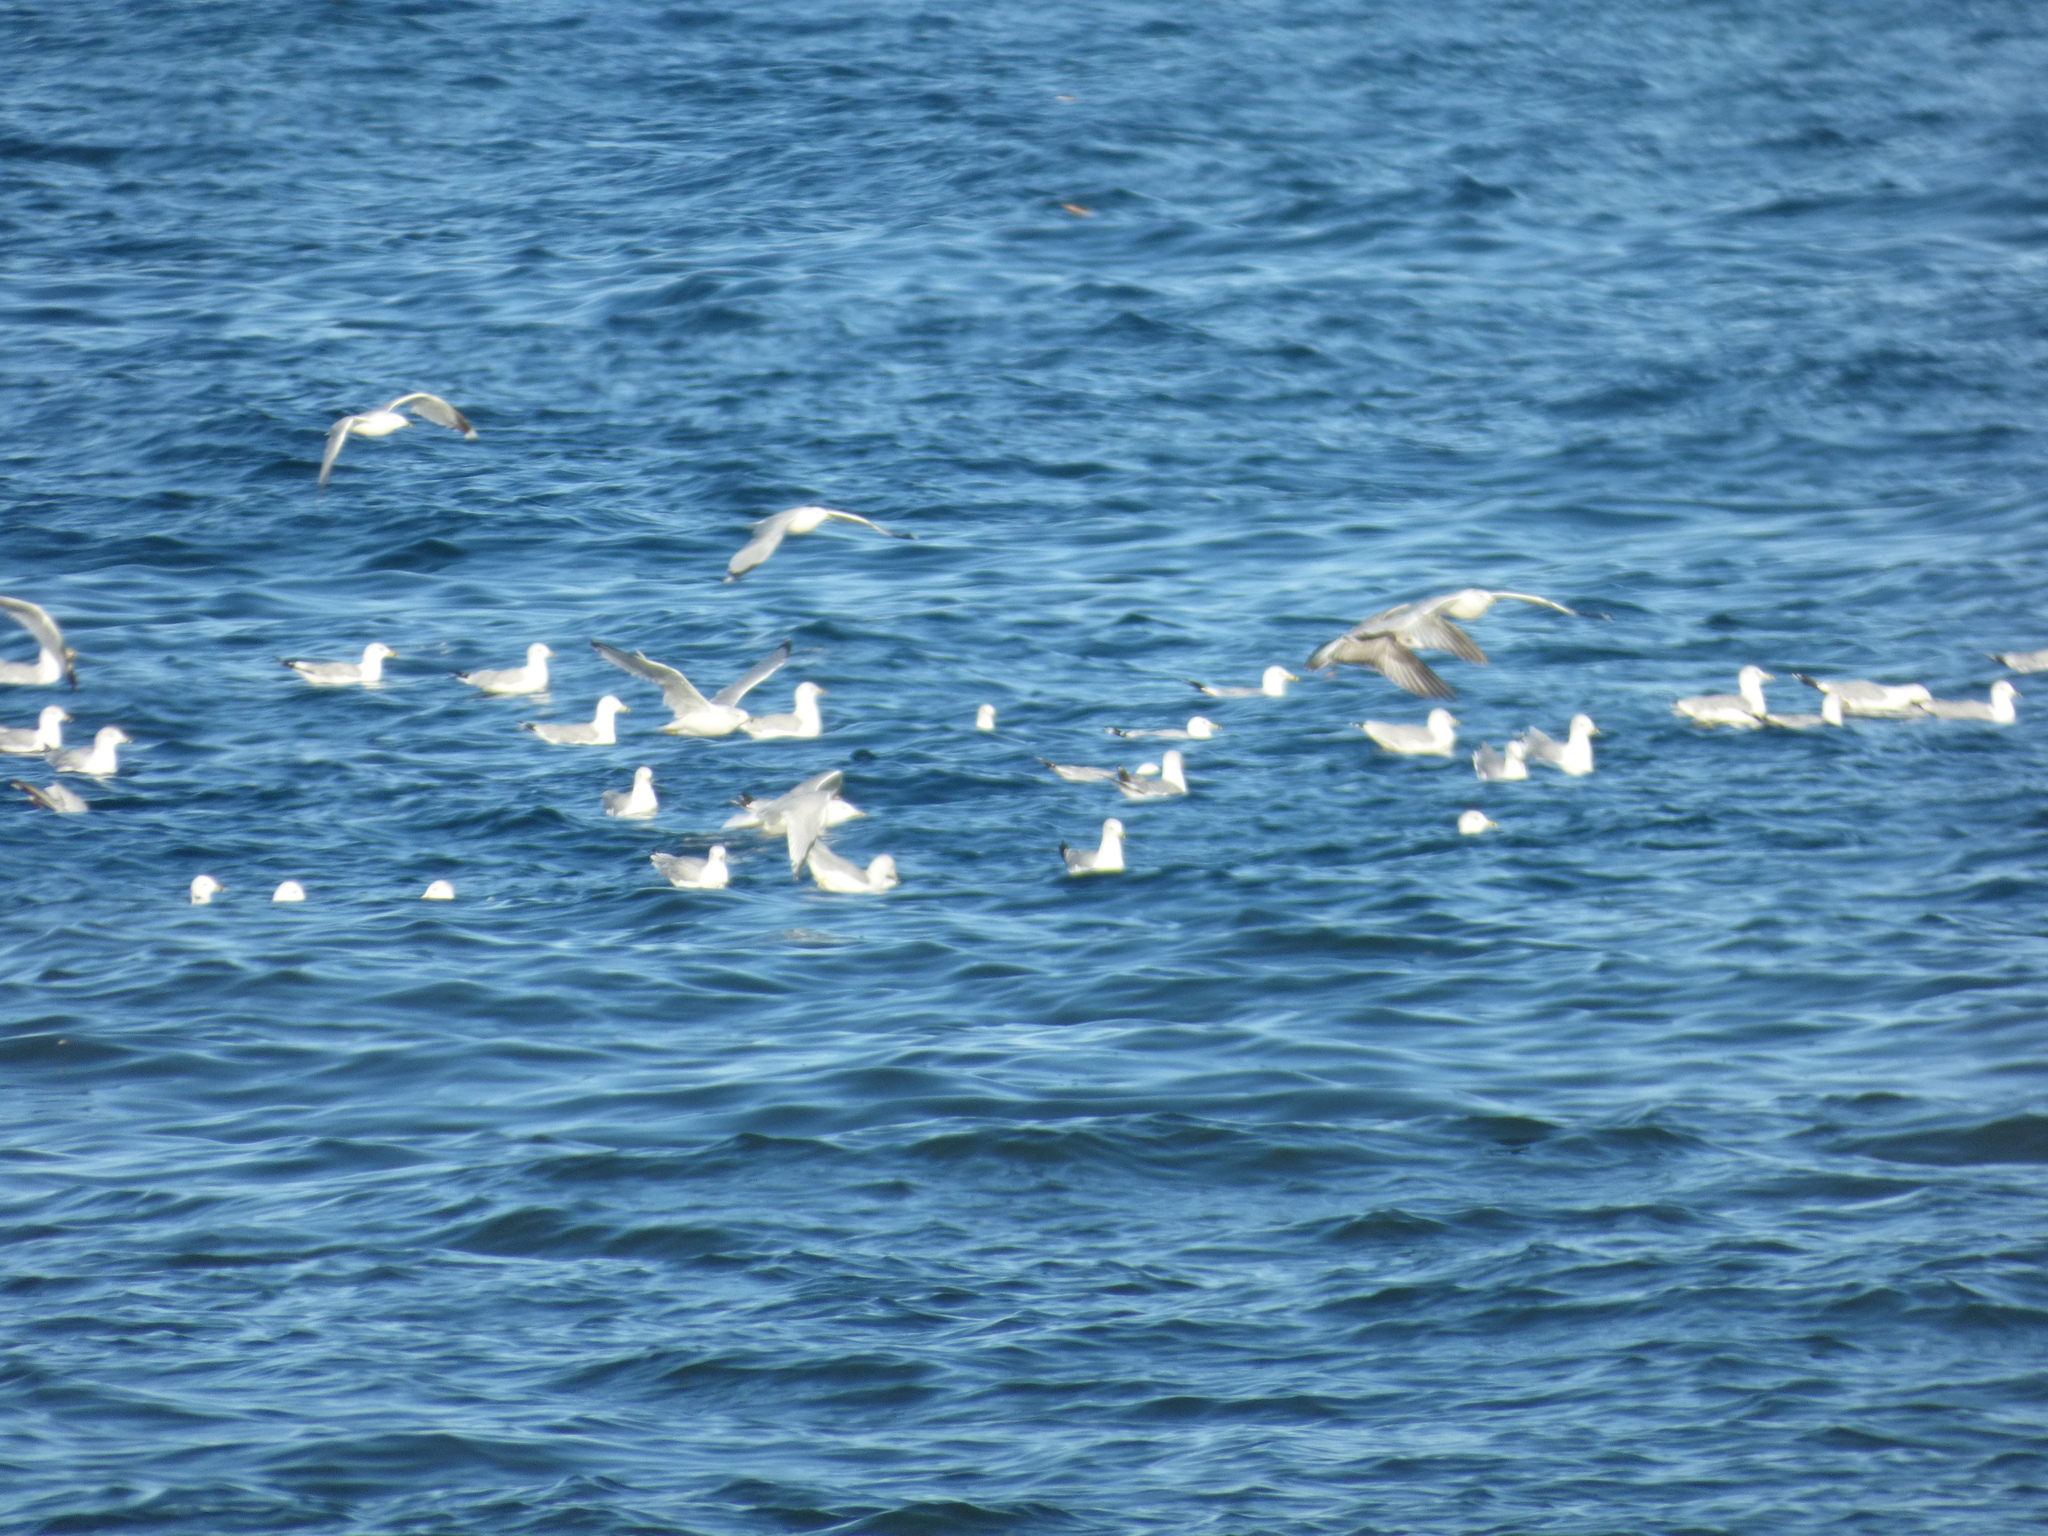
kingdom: Animalia
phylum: Chordata
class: Aves
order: Charadriiformes
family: Laridae
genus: Larus
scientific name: Larus delawarensis
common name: Ring-billed gull
